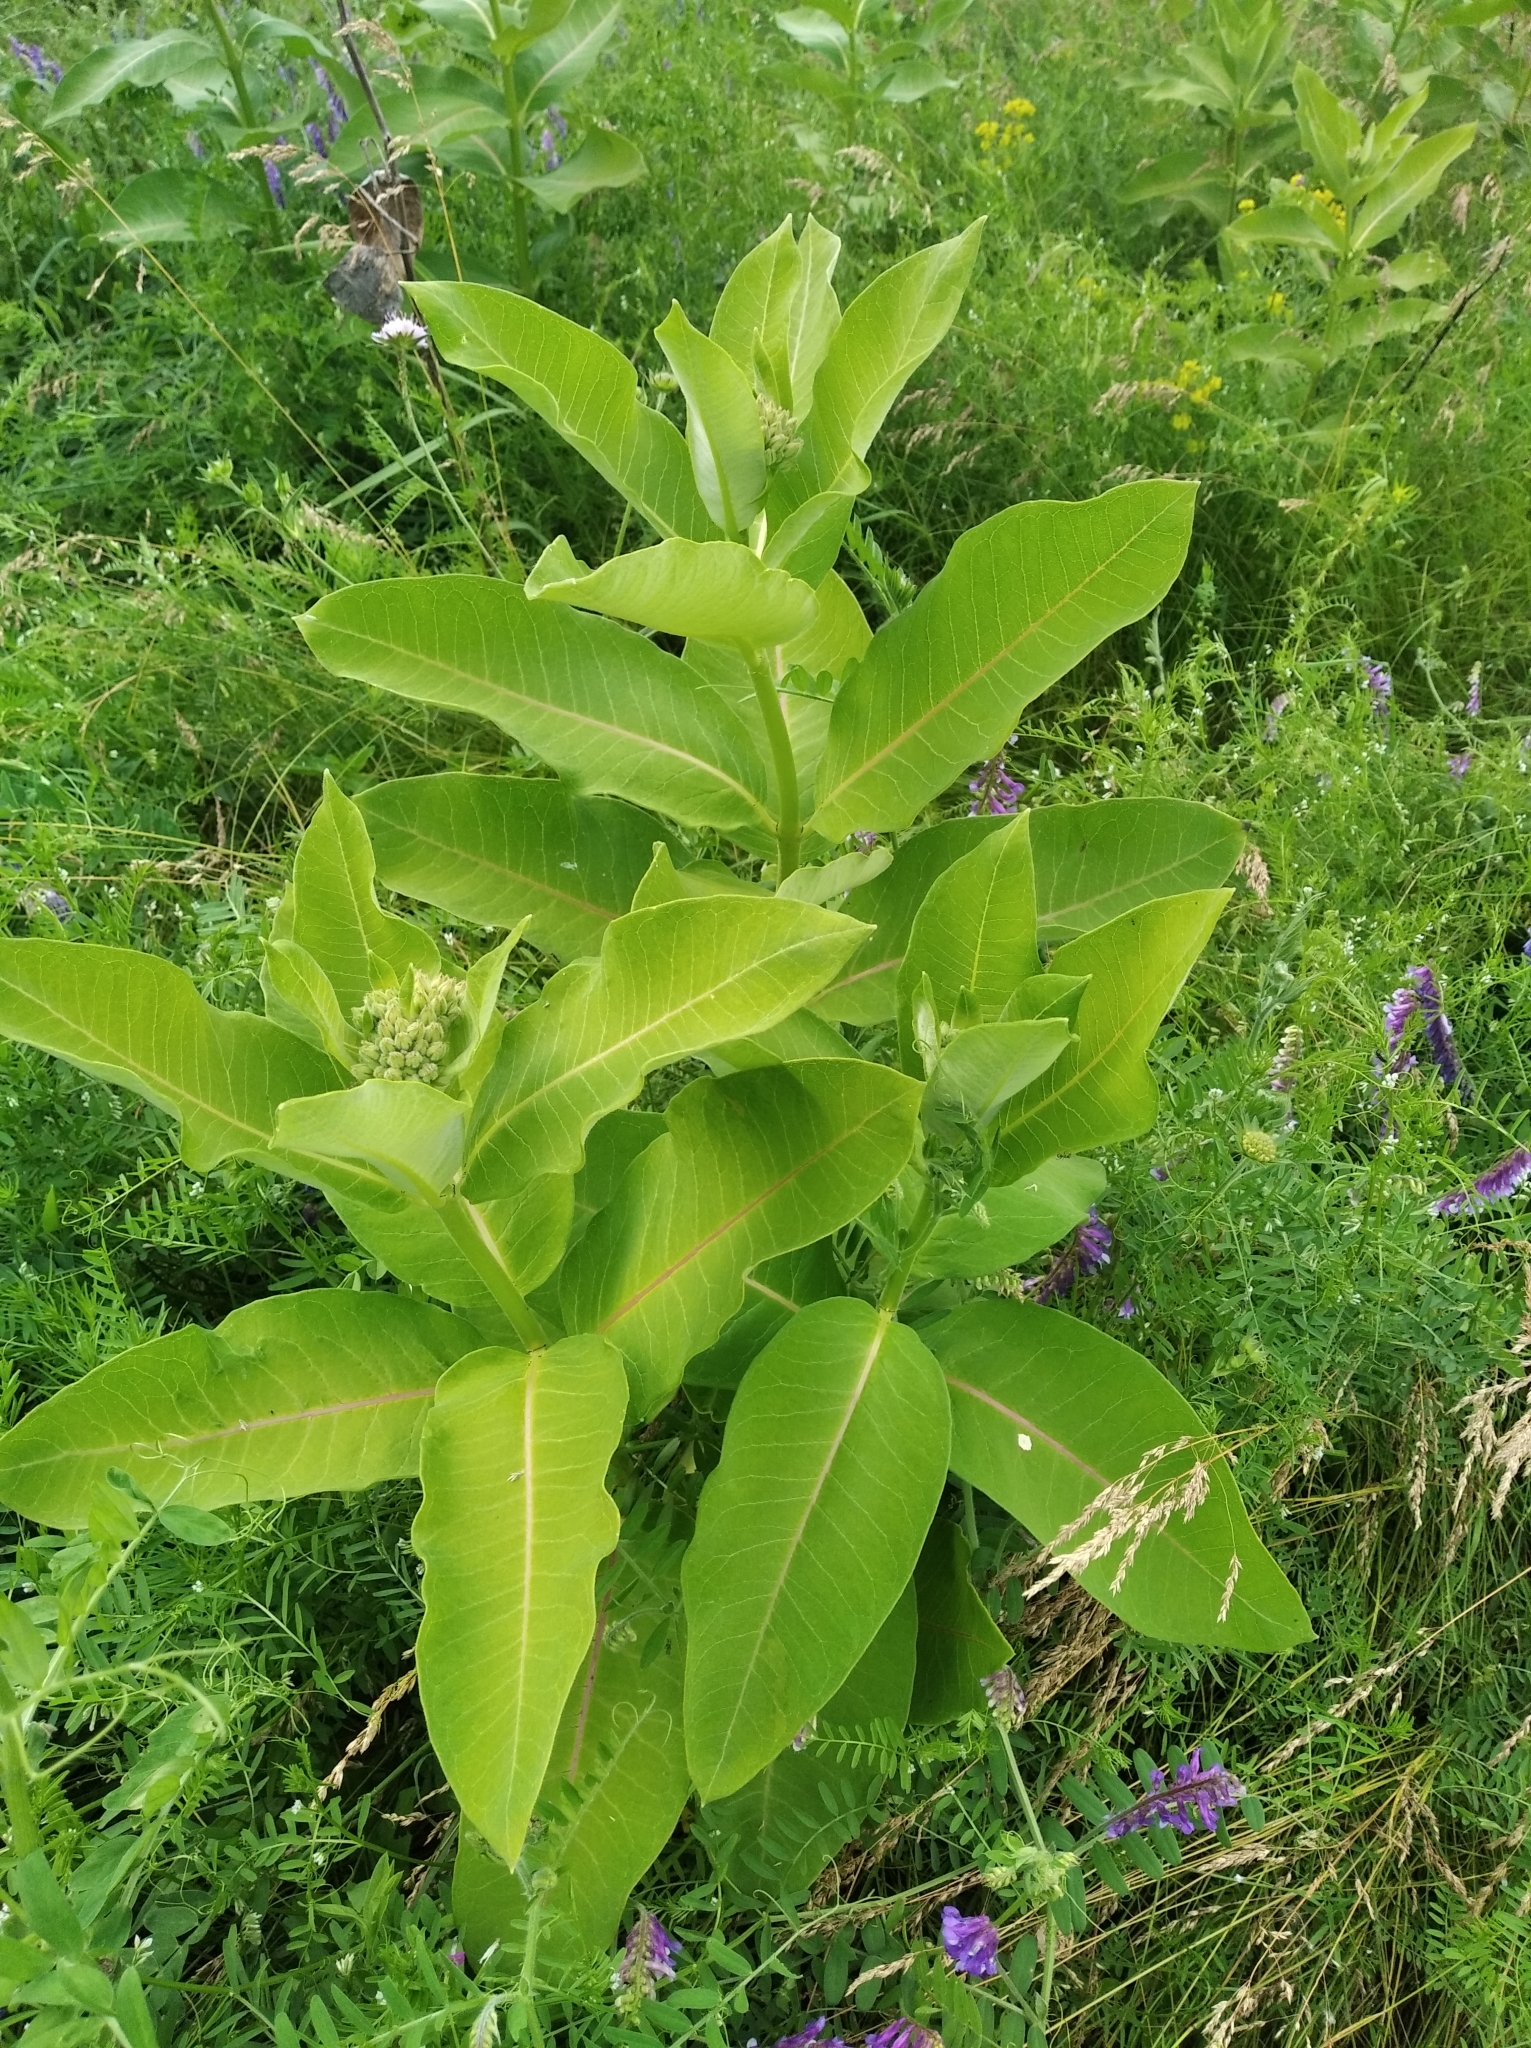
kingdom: Plantae
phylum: Tracheophyta
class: Magnoliopsida
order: Gentianales
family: Apocynaceae
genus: Asclepias
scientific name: Asclepias syriaca
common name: Common milkweed
